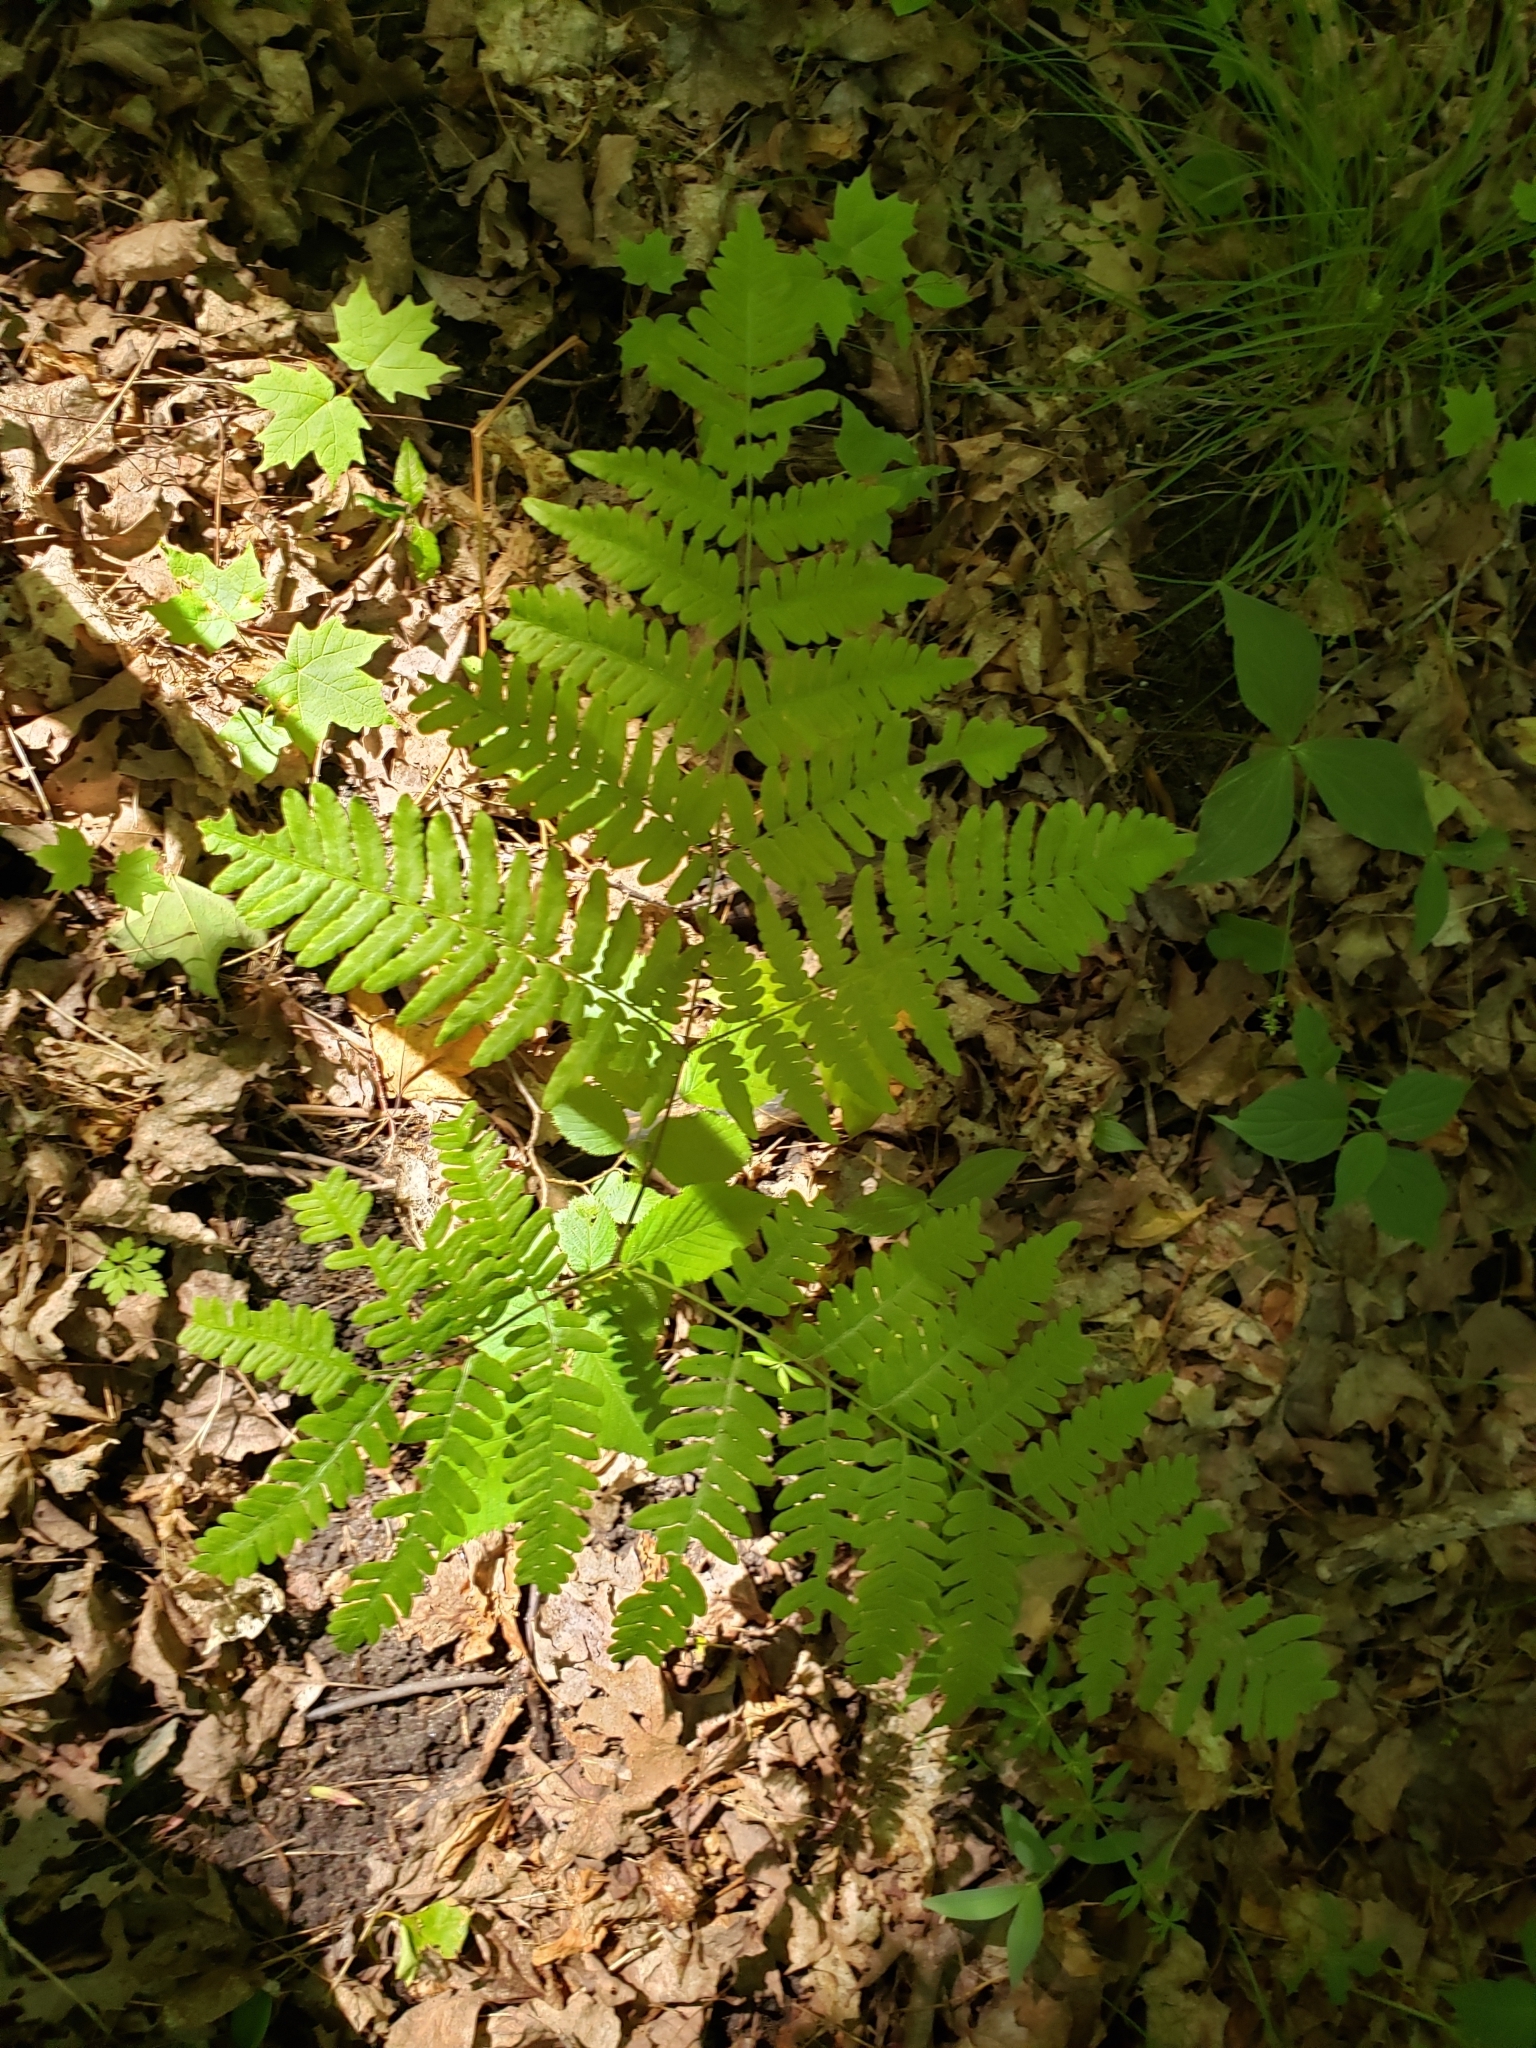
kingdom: Plantae
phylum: Tracheophyta
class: Polypodiopsida
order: Polypodiales
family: Dennstaedtiaceae
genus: Pteridium
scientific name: Pteridium aquilinum
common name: Bracken
